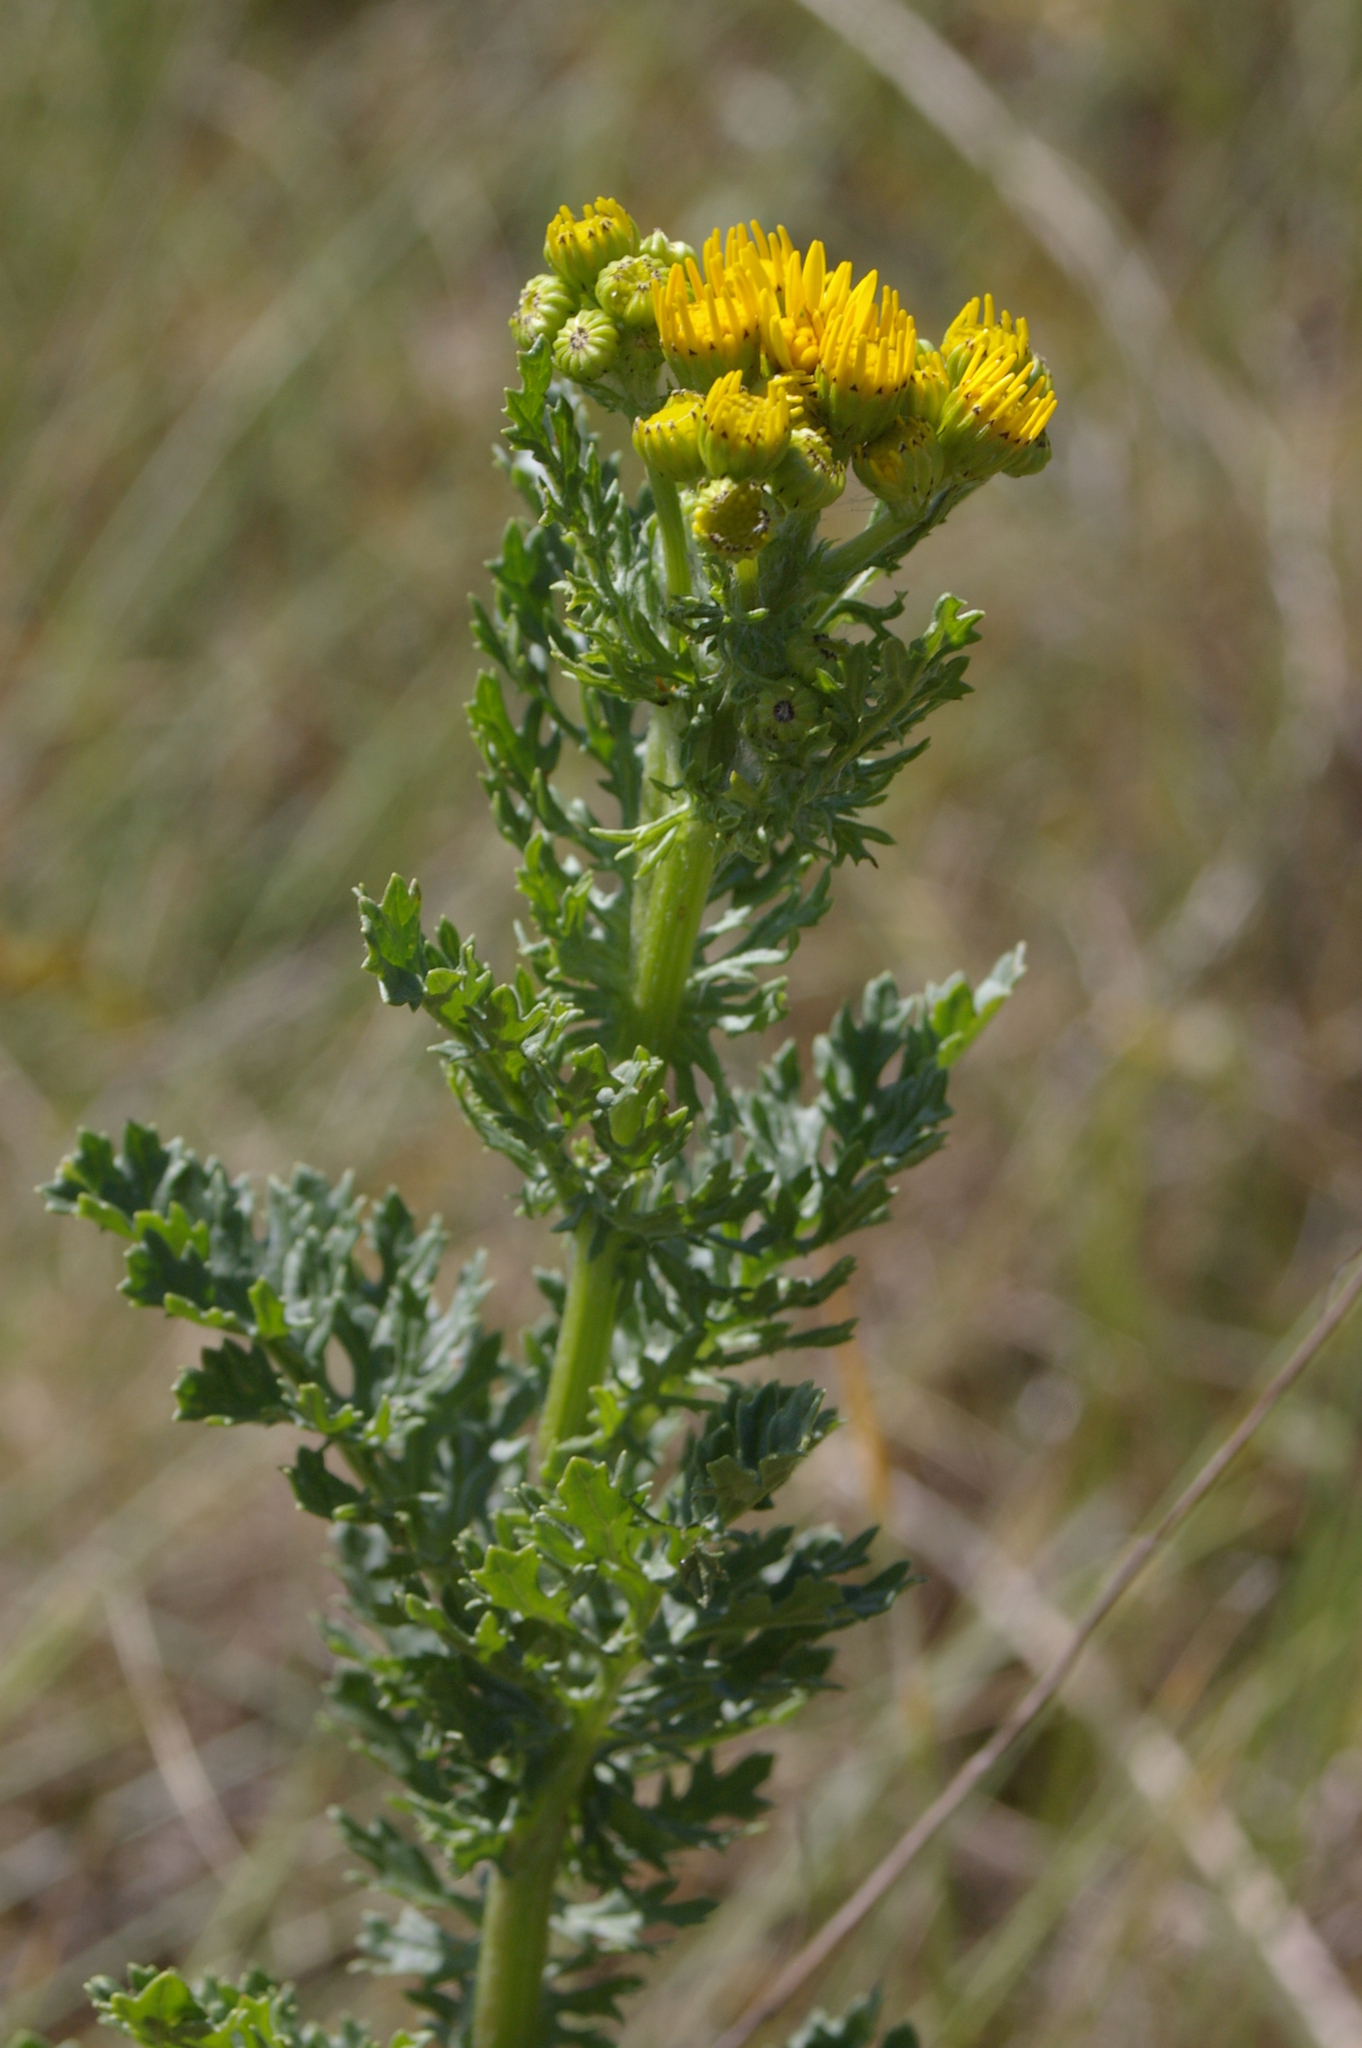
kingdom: Plantae
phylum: Tracheophyta
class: Magnoliopsida
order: Asterales
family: Asteraceae
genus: Jacobaea
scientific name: Jacobaea vulgaris
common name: Stinking willie
